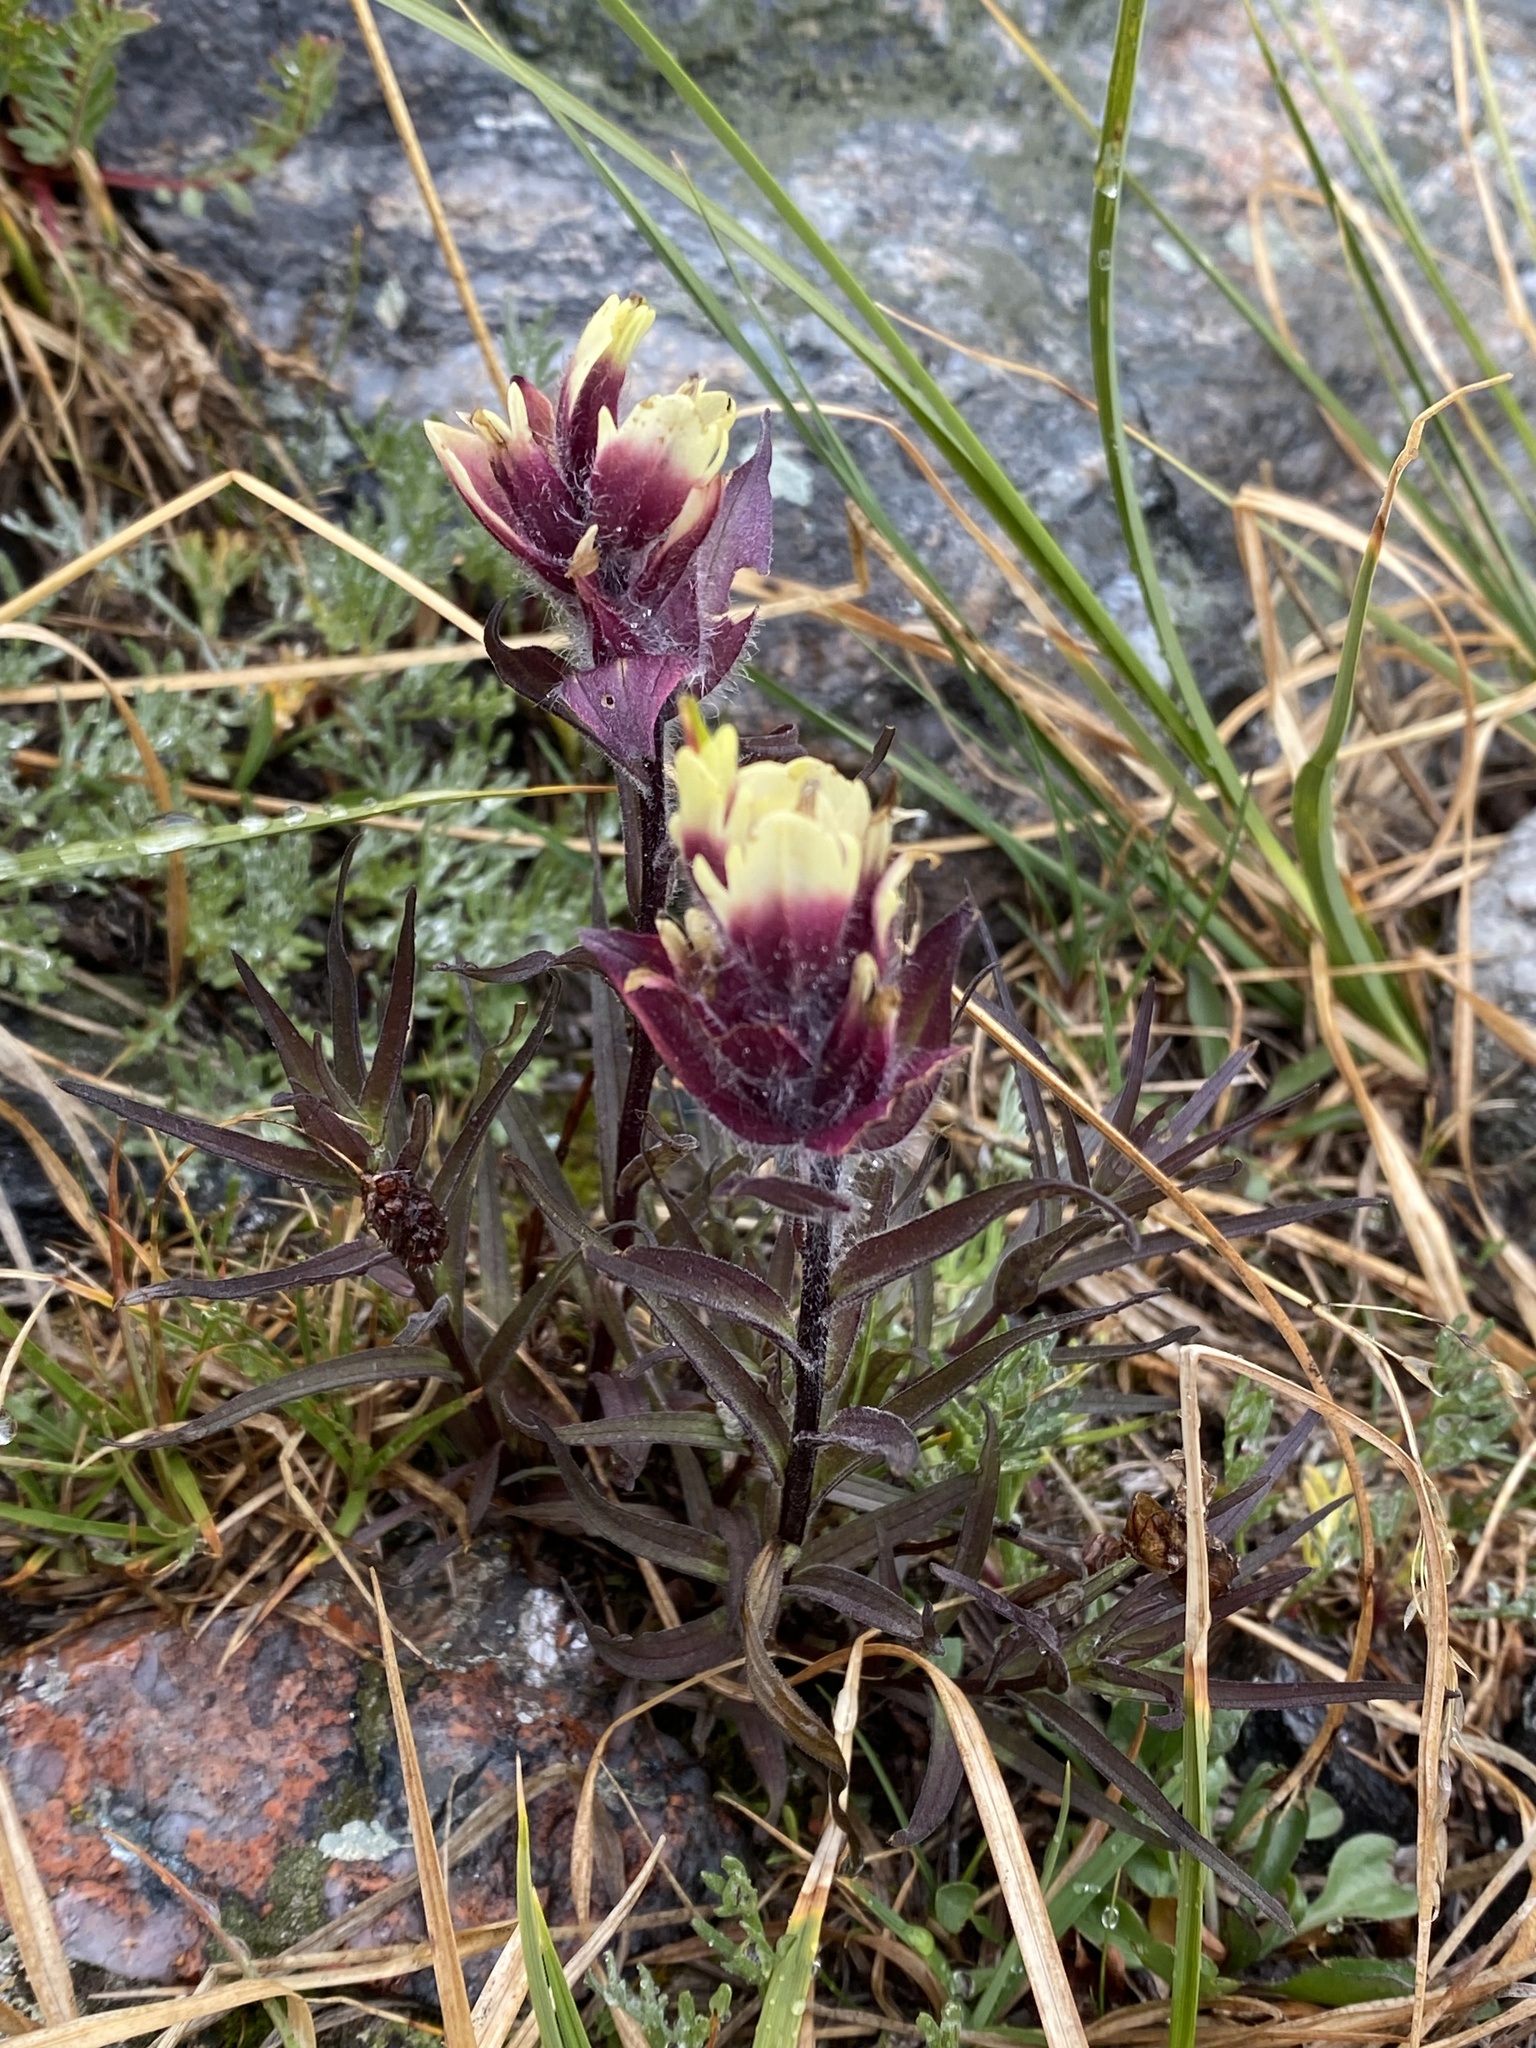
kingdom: Plantae
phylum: Tracheophyta
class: Magnoliopsida
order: Lamiales
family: Orobanchaceae
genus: Castilleja
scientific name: Castilleja occidentalis
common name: Western paintbrush
